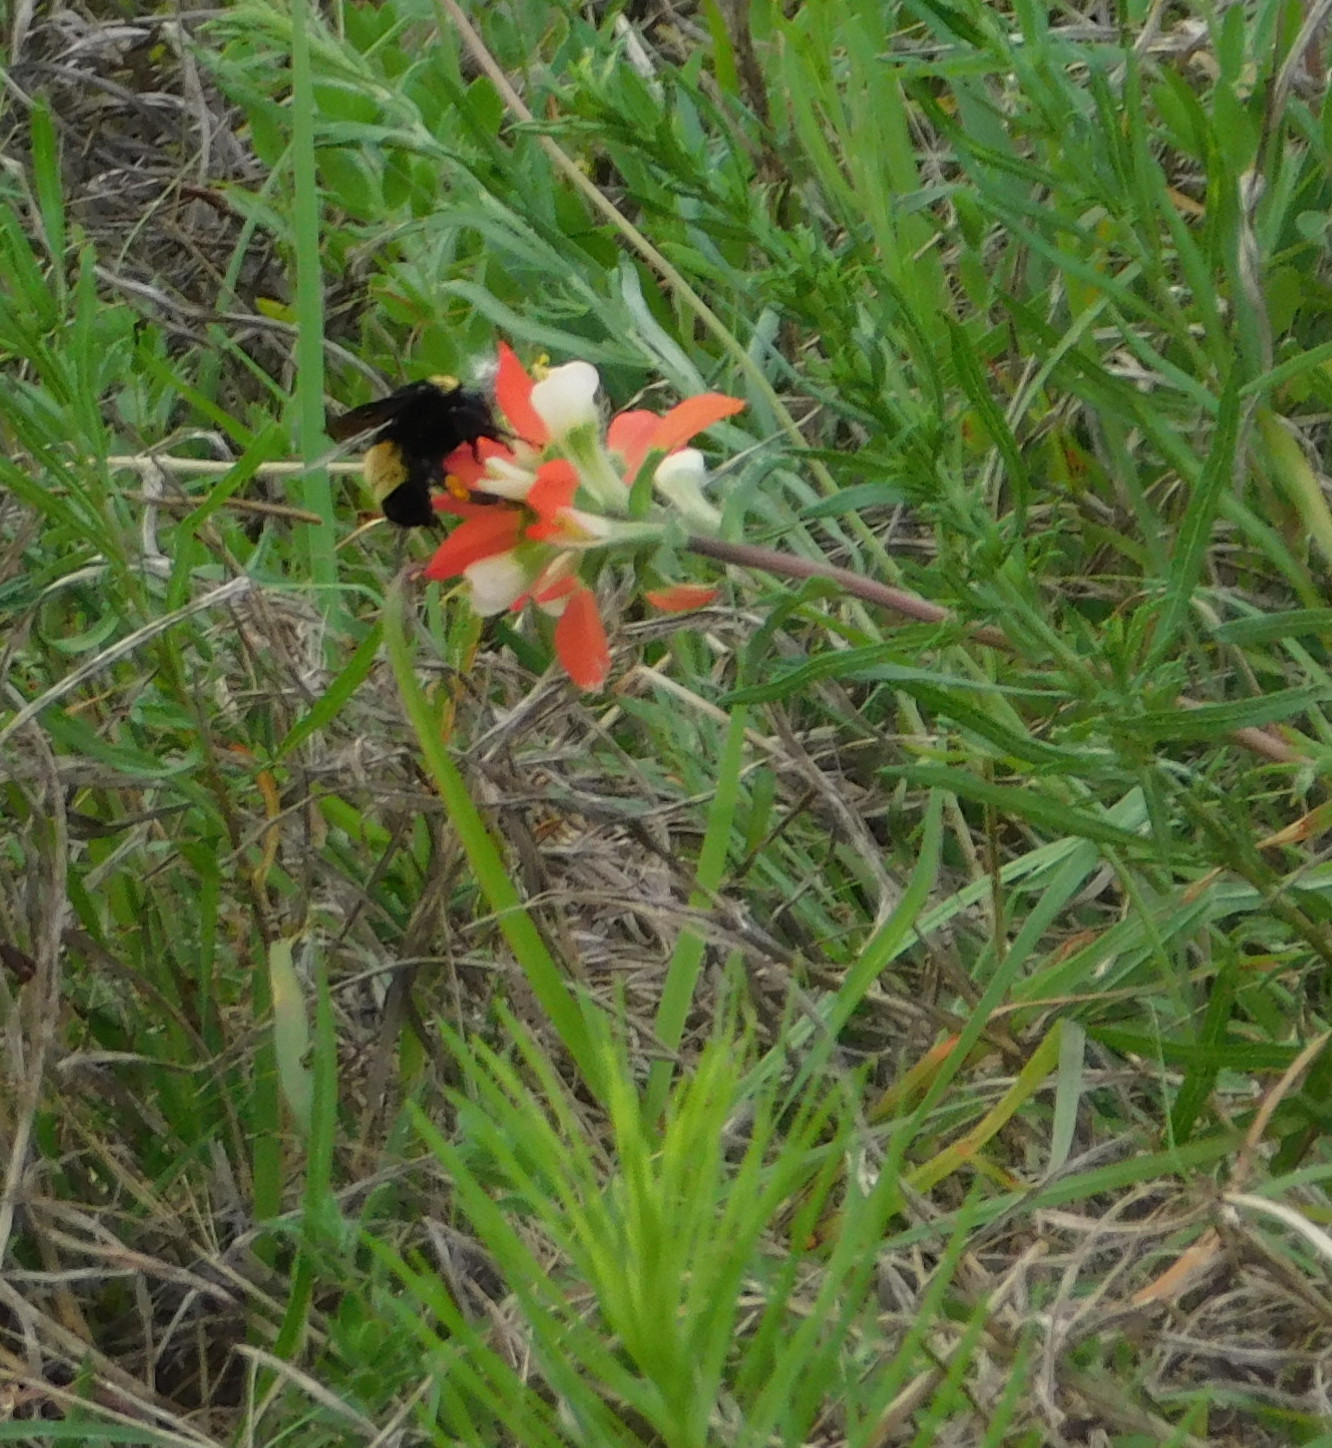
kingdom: Animalia
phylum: Arthropoda
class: Insecta
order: Hymenoptera
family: Apidae
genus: Bombus
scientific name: Bombus pensylvanicus
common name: Bumble bee
